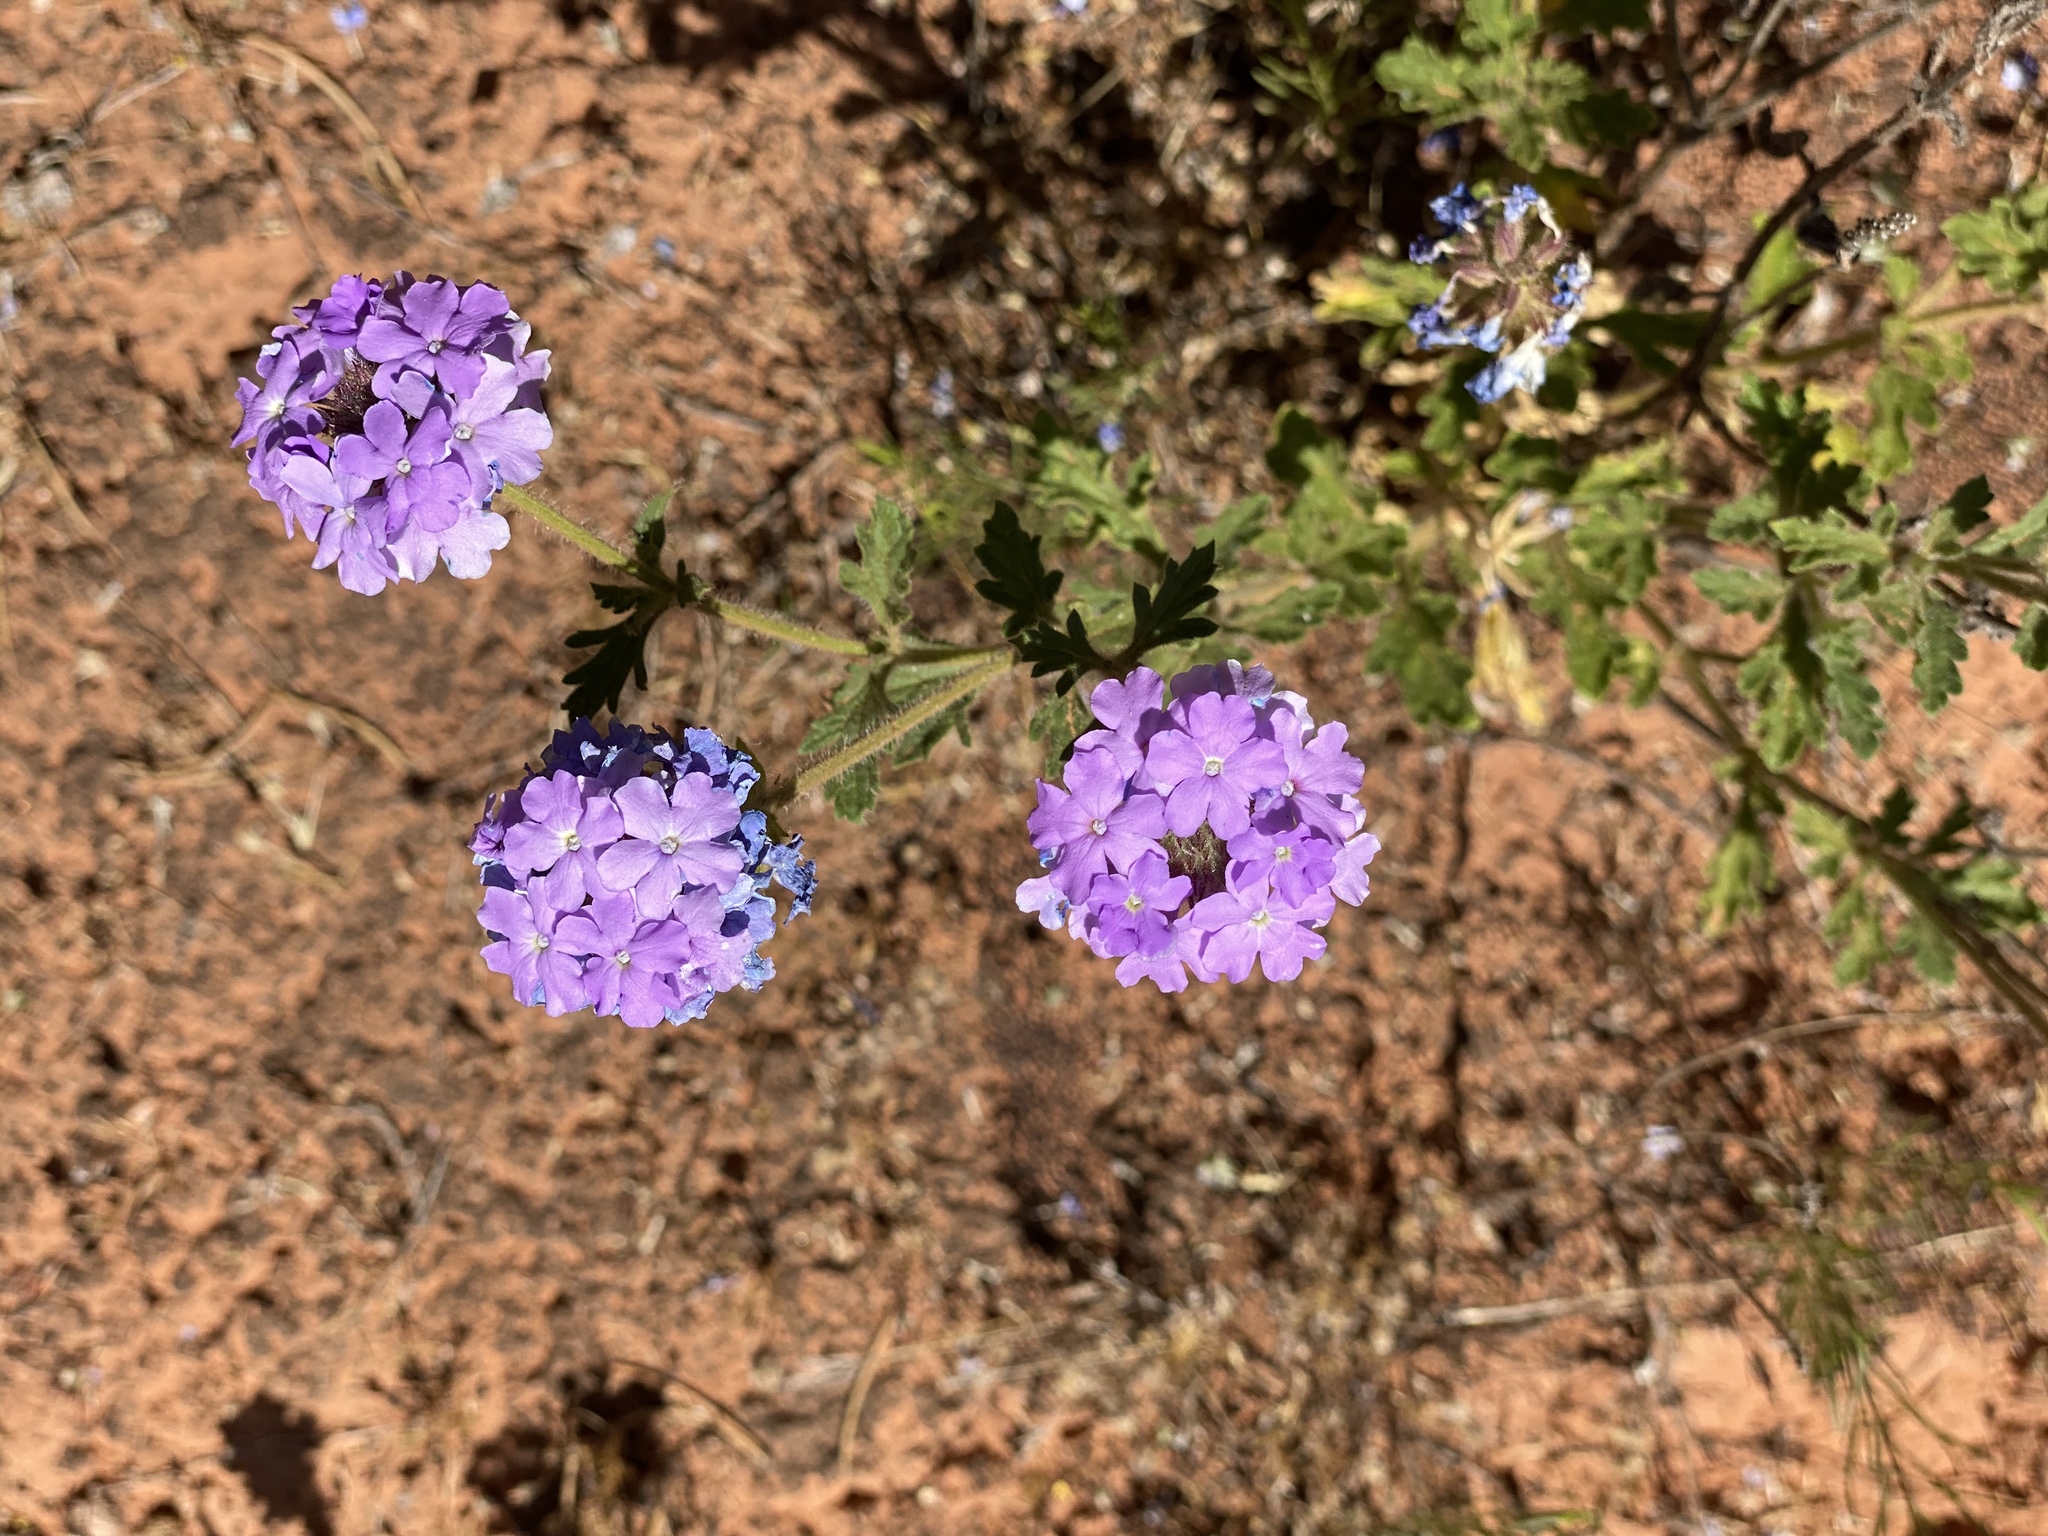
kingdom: Plantae
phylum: Tracheophyta
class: Magnoliopsida
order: Lamiales
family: Verbenaceae
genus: Verbena
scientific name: Verbena gooddingii
